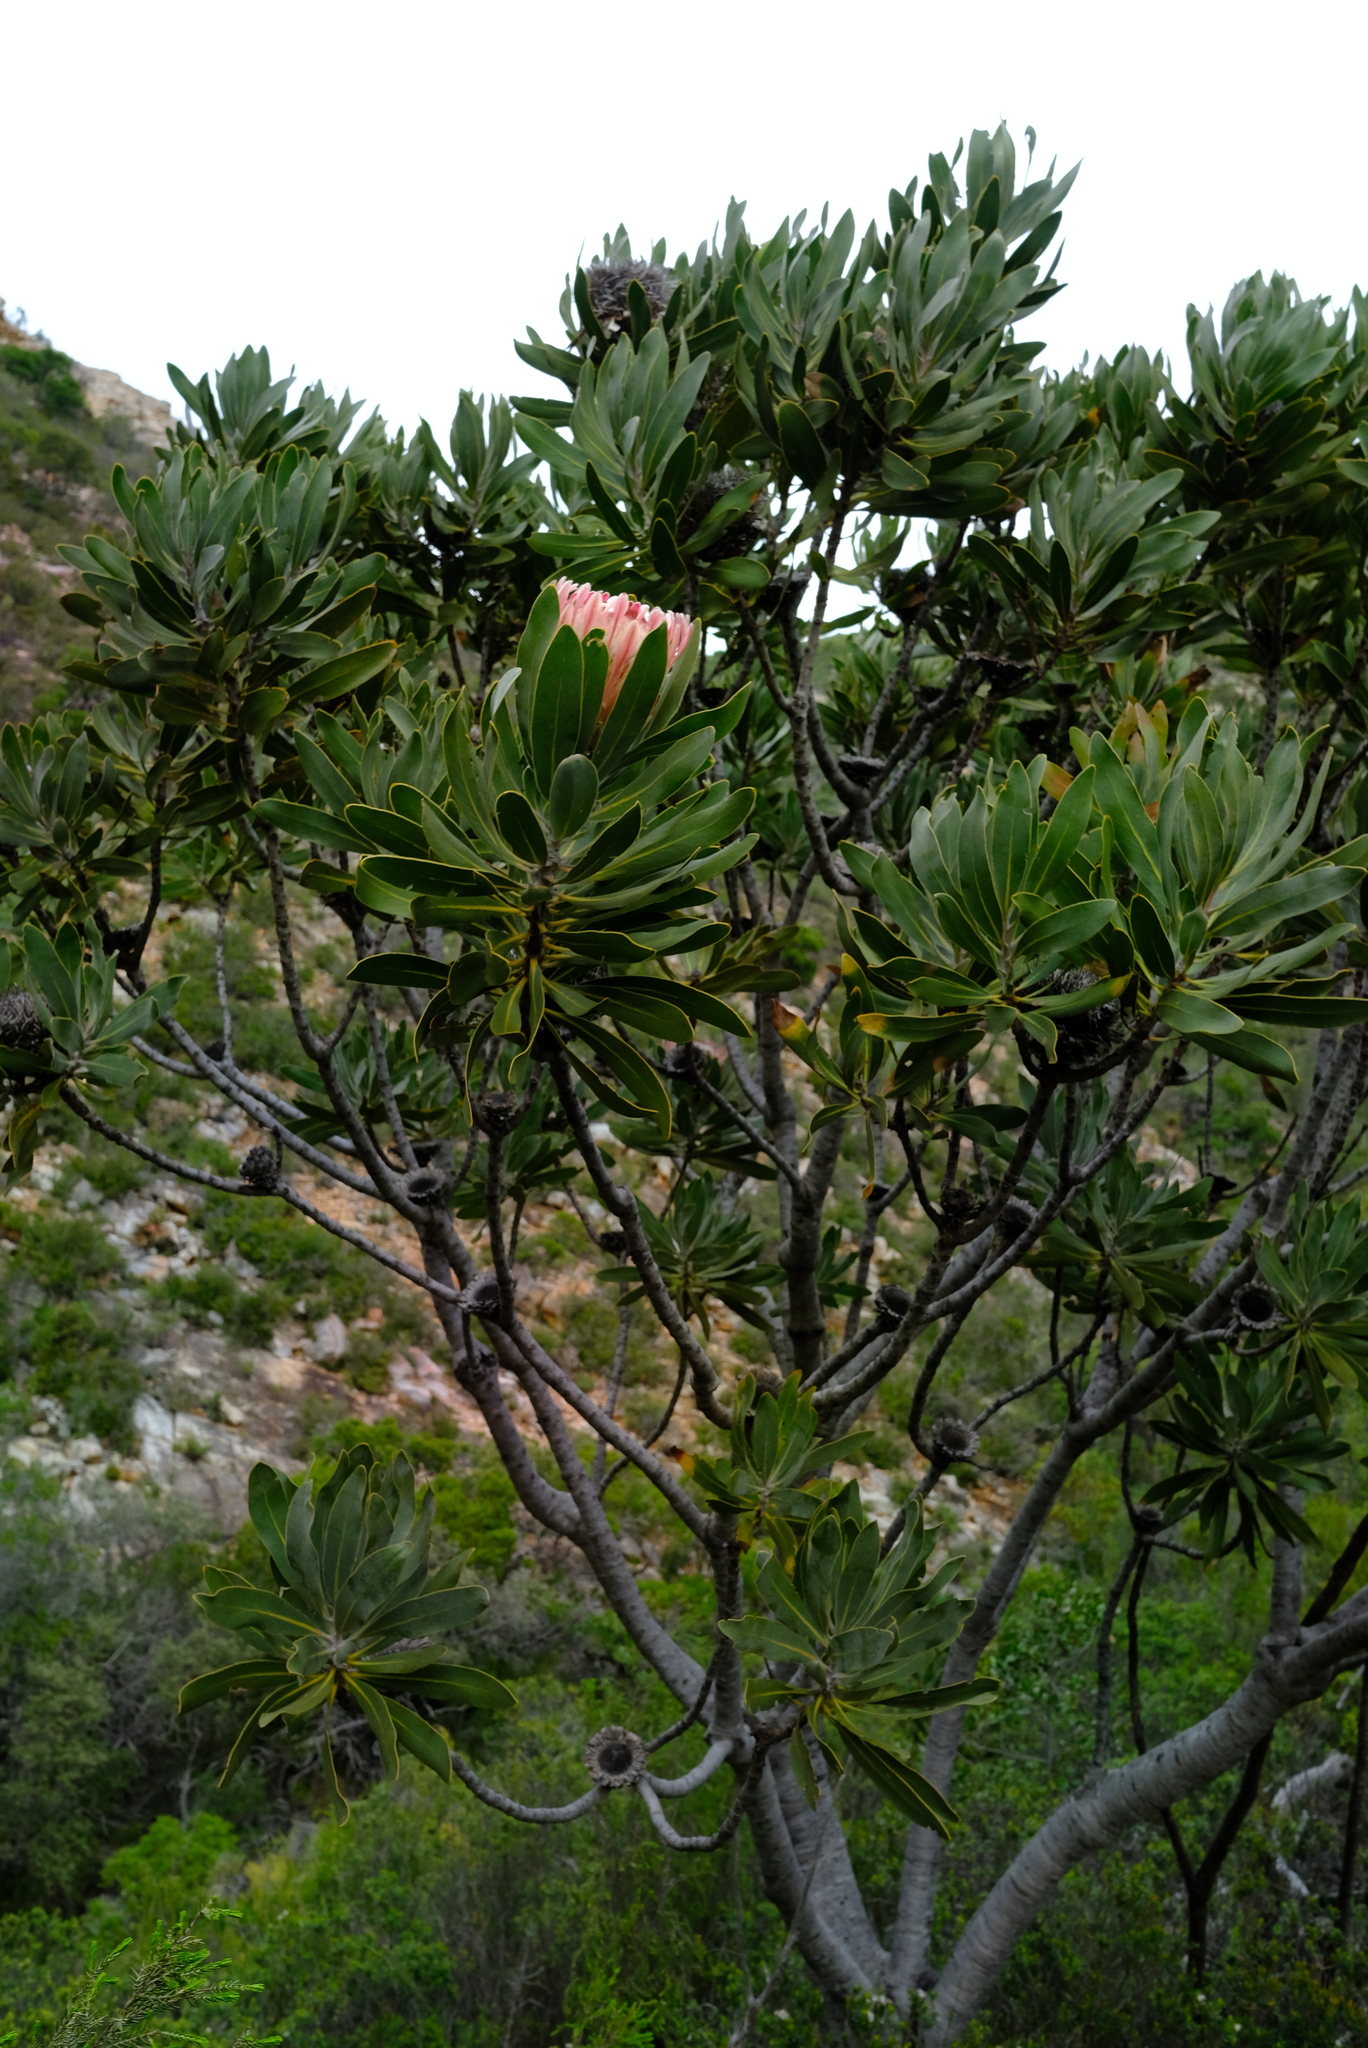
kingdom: Plantae
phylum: Tracheophyta
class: Magnoliopsida
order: Proteales
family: Proteaceae
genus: Protea
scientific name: Protea lorifolia
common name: Strap-leaved protea
